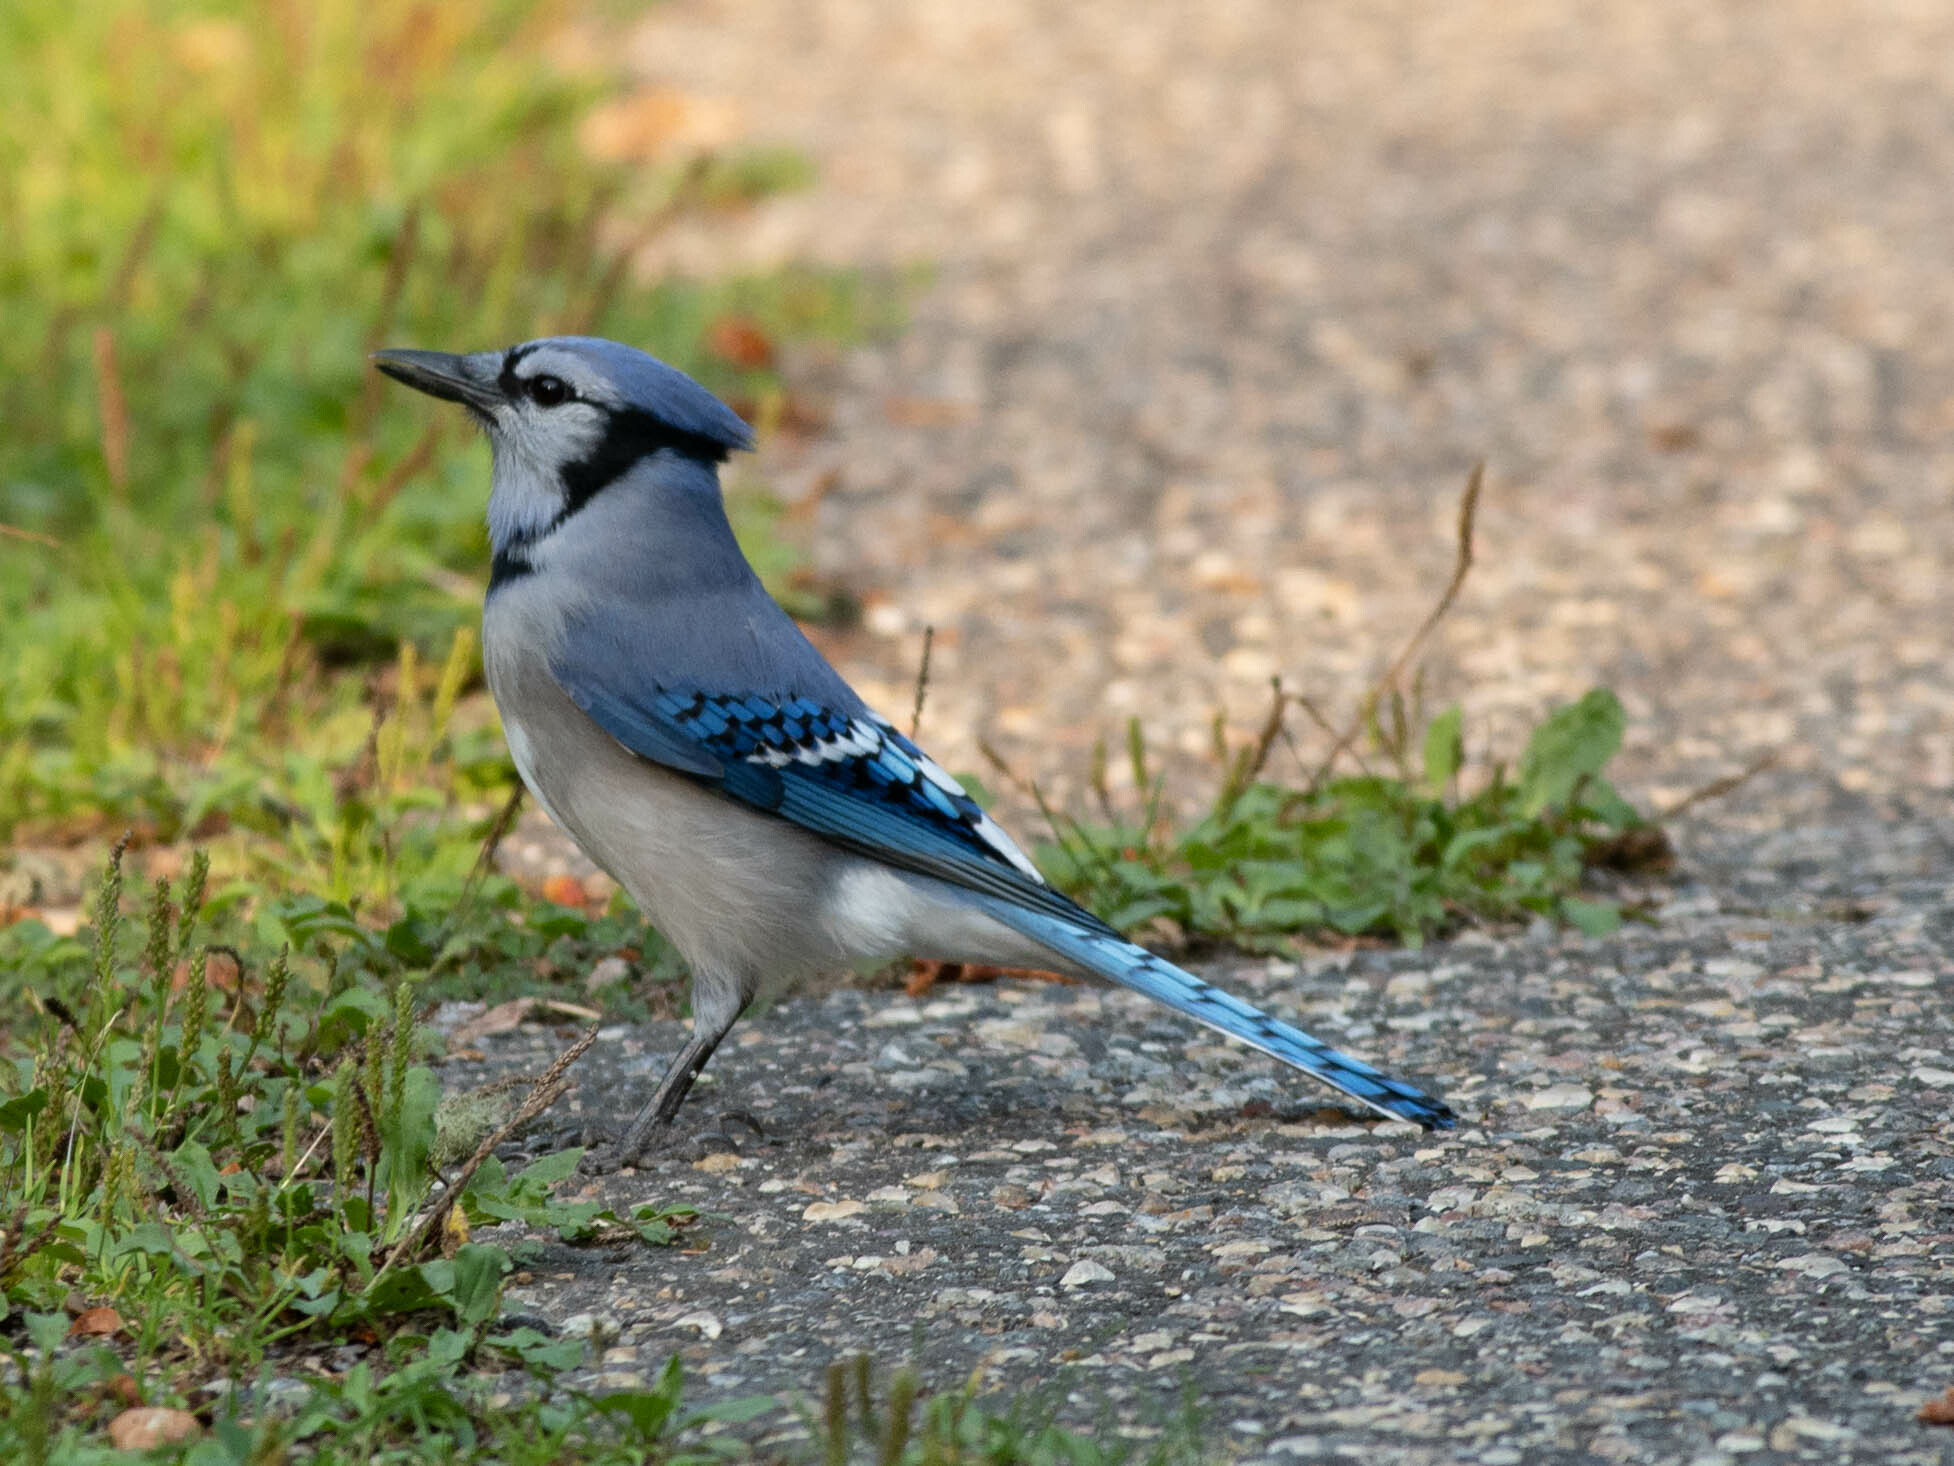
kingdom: Animalia
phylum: Chordata
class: Aves
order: Passeriformes
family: Corvidae
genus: Cyanocitta
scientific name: Cyanocitta cristata
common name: Blue jay
